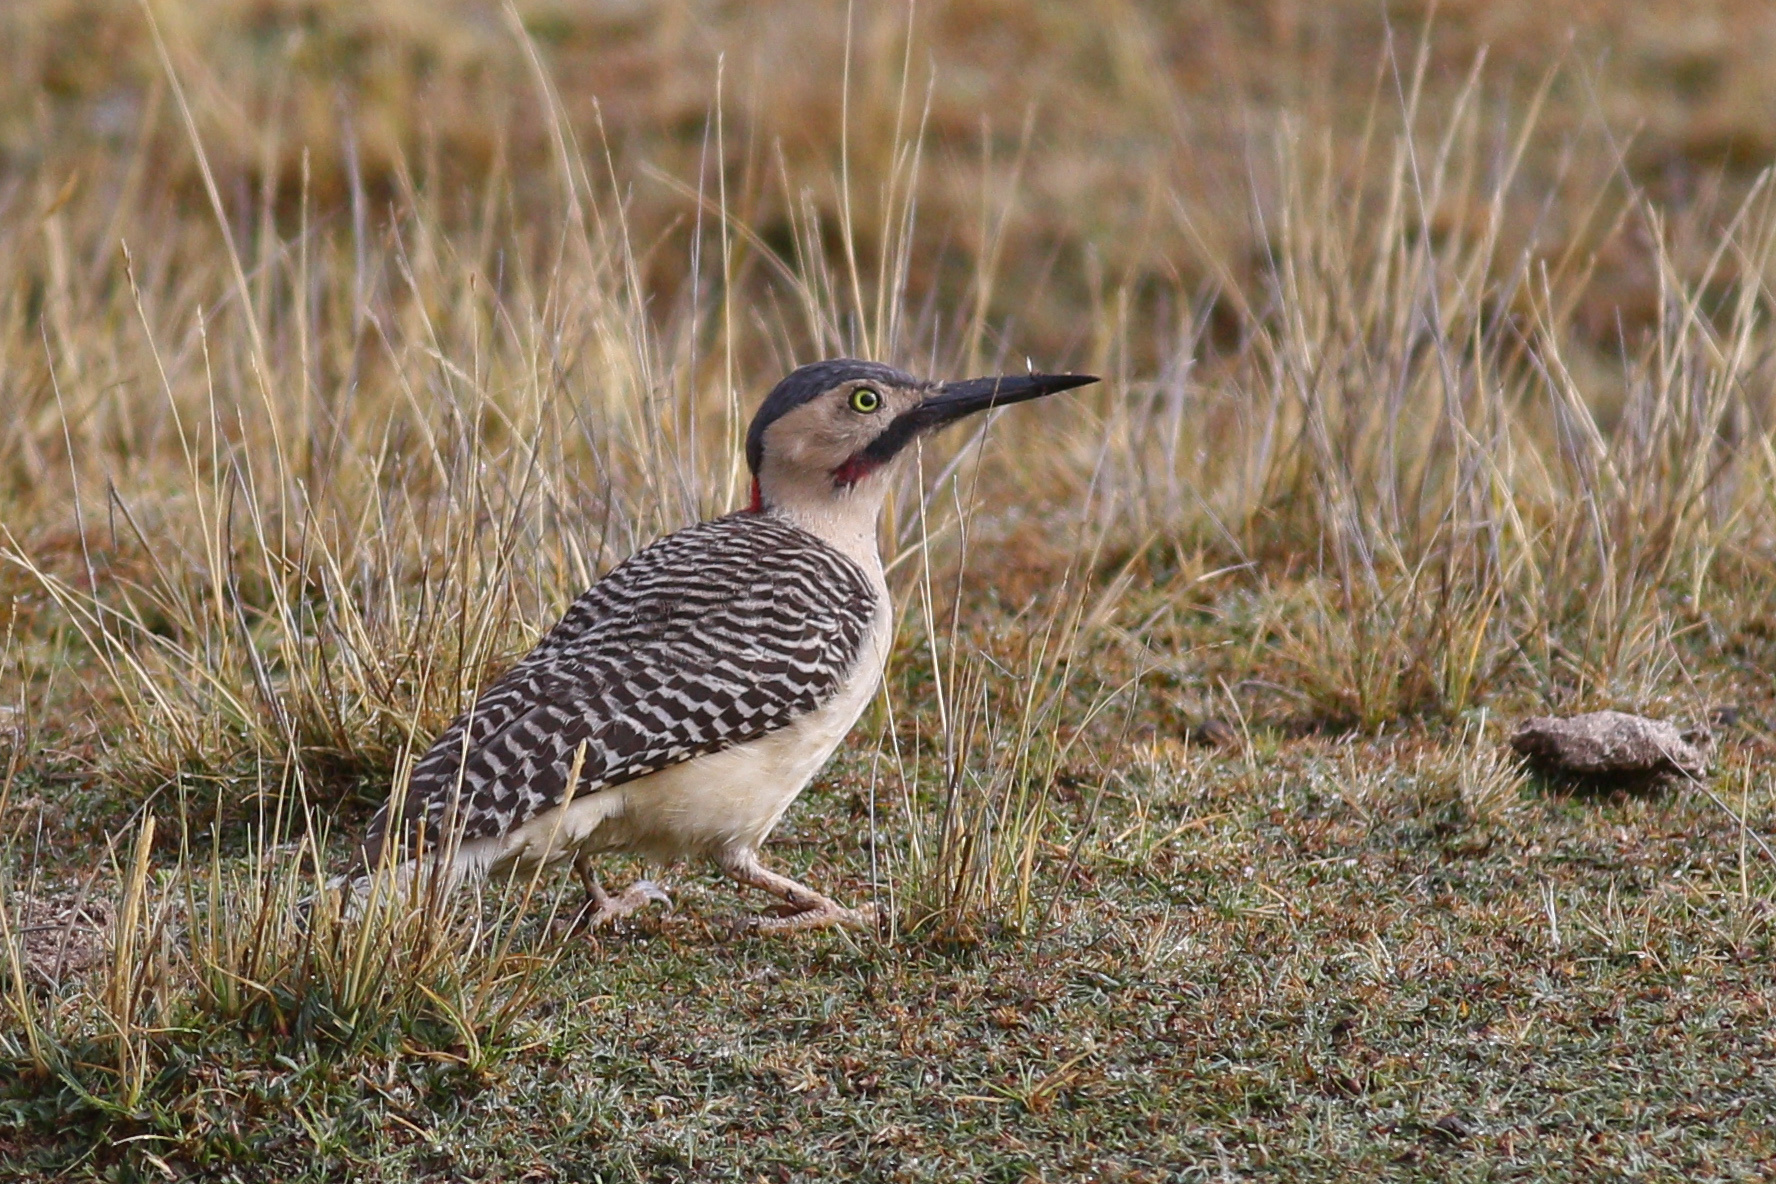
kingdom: Animalia
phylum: Chordata
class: Aves
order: Piciformes
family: Picidae
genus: Colaptes
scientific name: Colaptes rupicola
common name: Andean flicker
